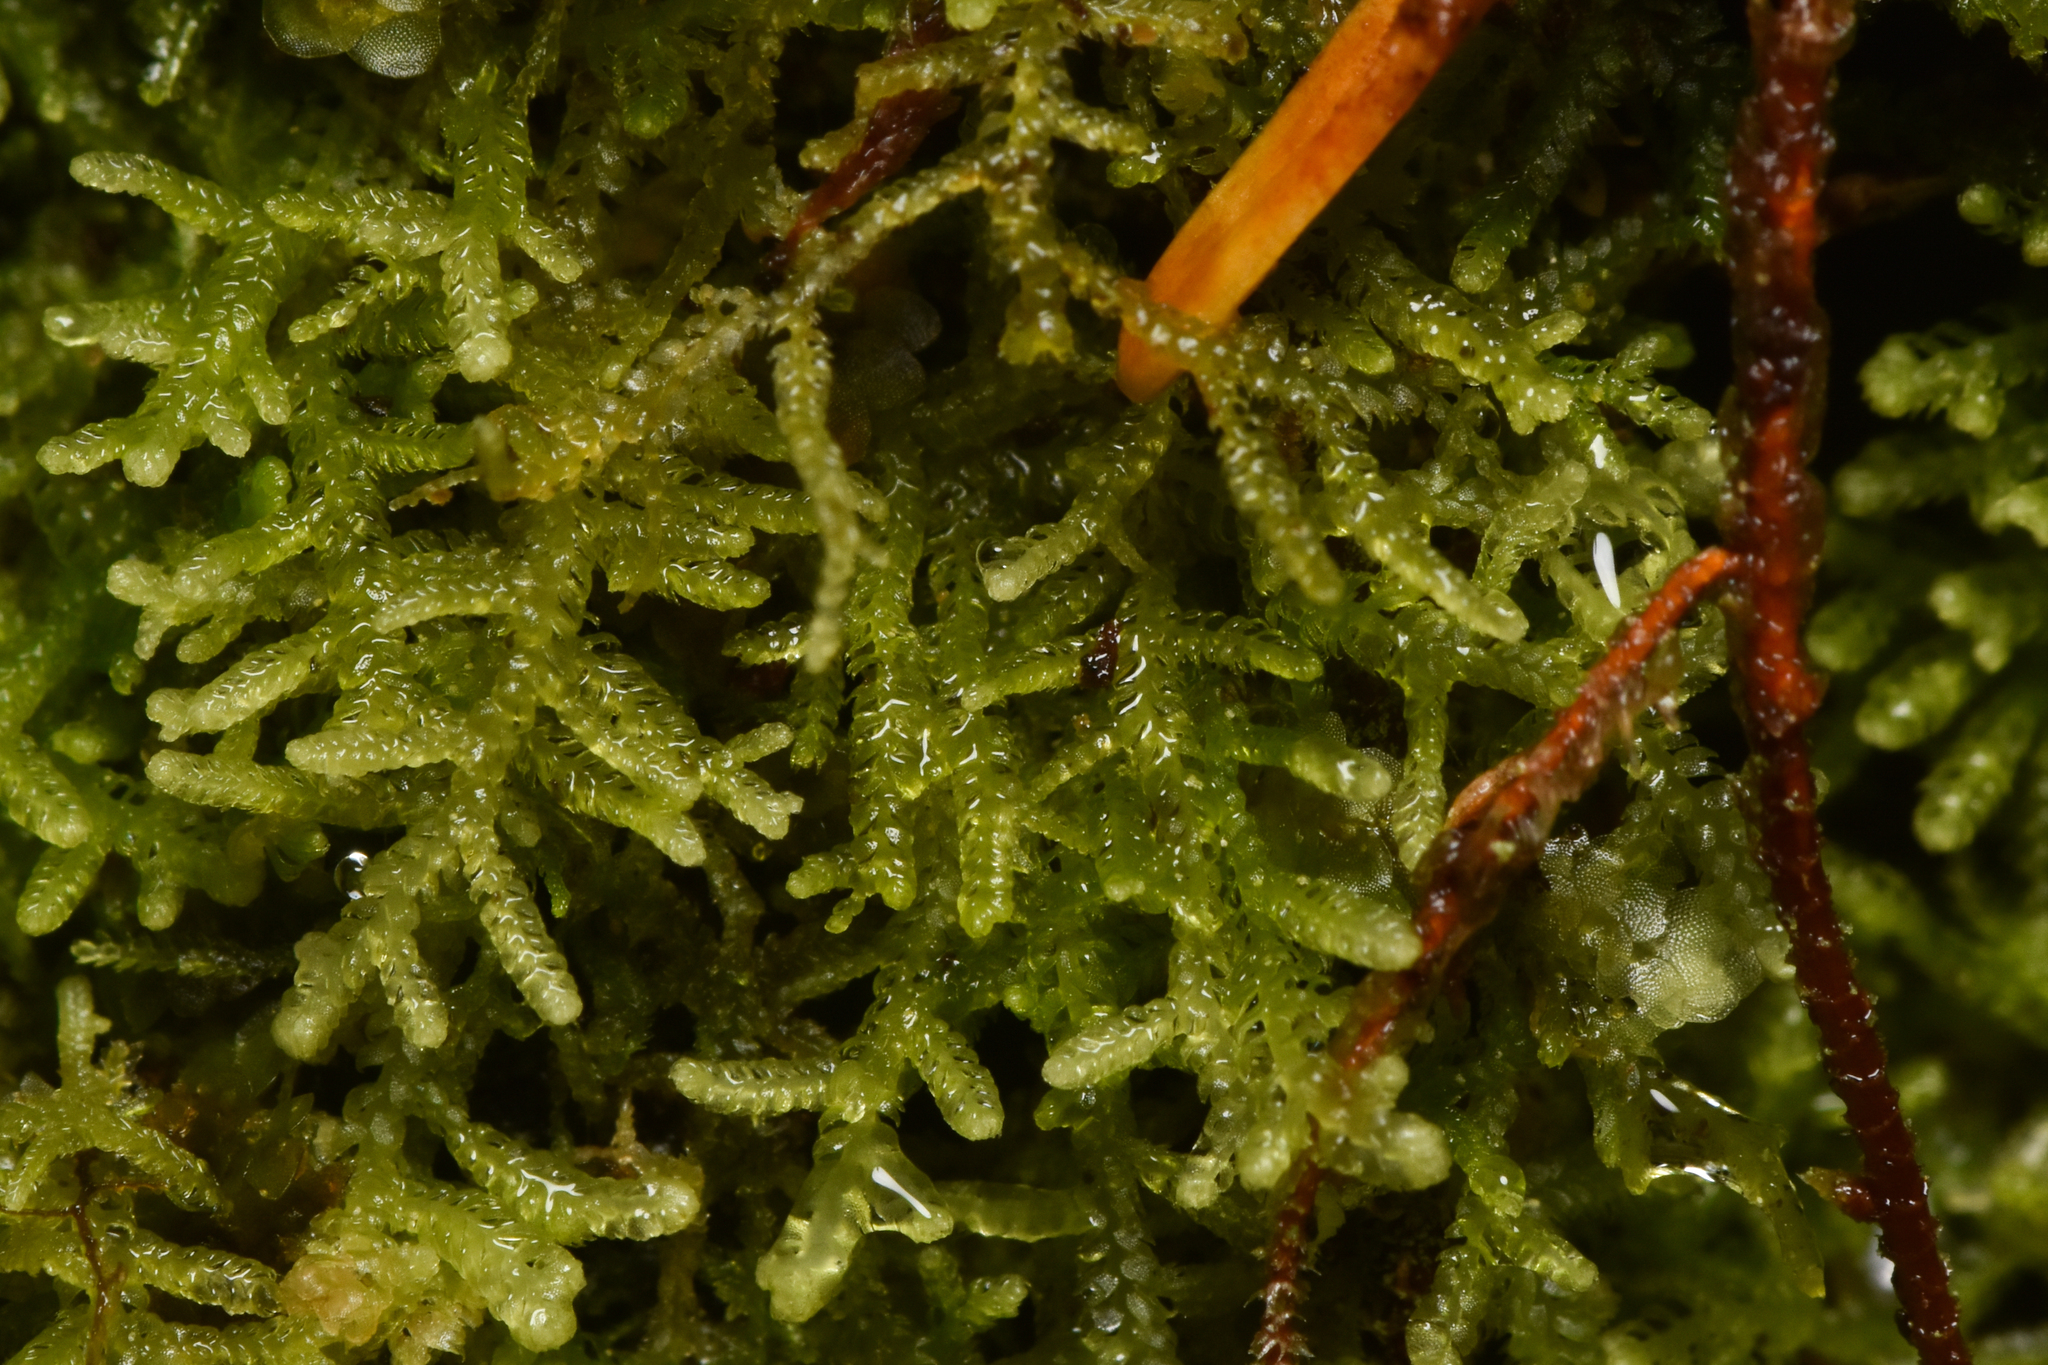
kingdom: Plantae
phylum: Marchantiophyta
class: Jungermanniopsida
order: Jungermanniales
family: Lepidoziaceae
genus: Lepidozia
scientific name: Lepidozia reptans
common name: Creeping fingerwort
